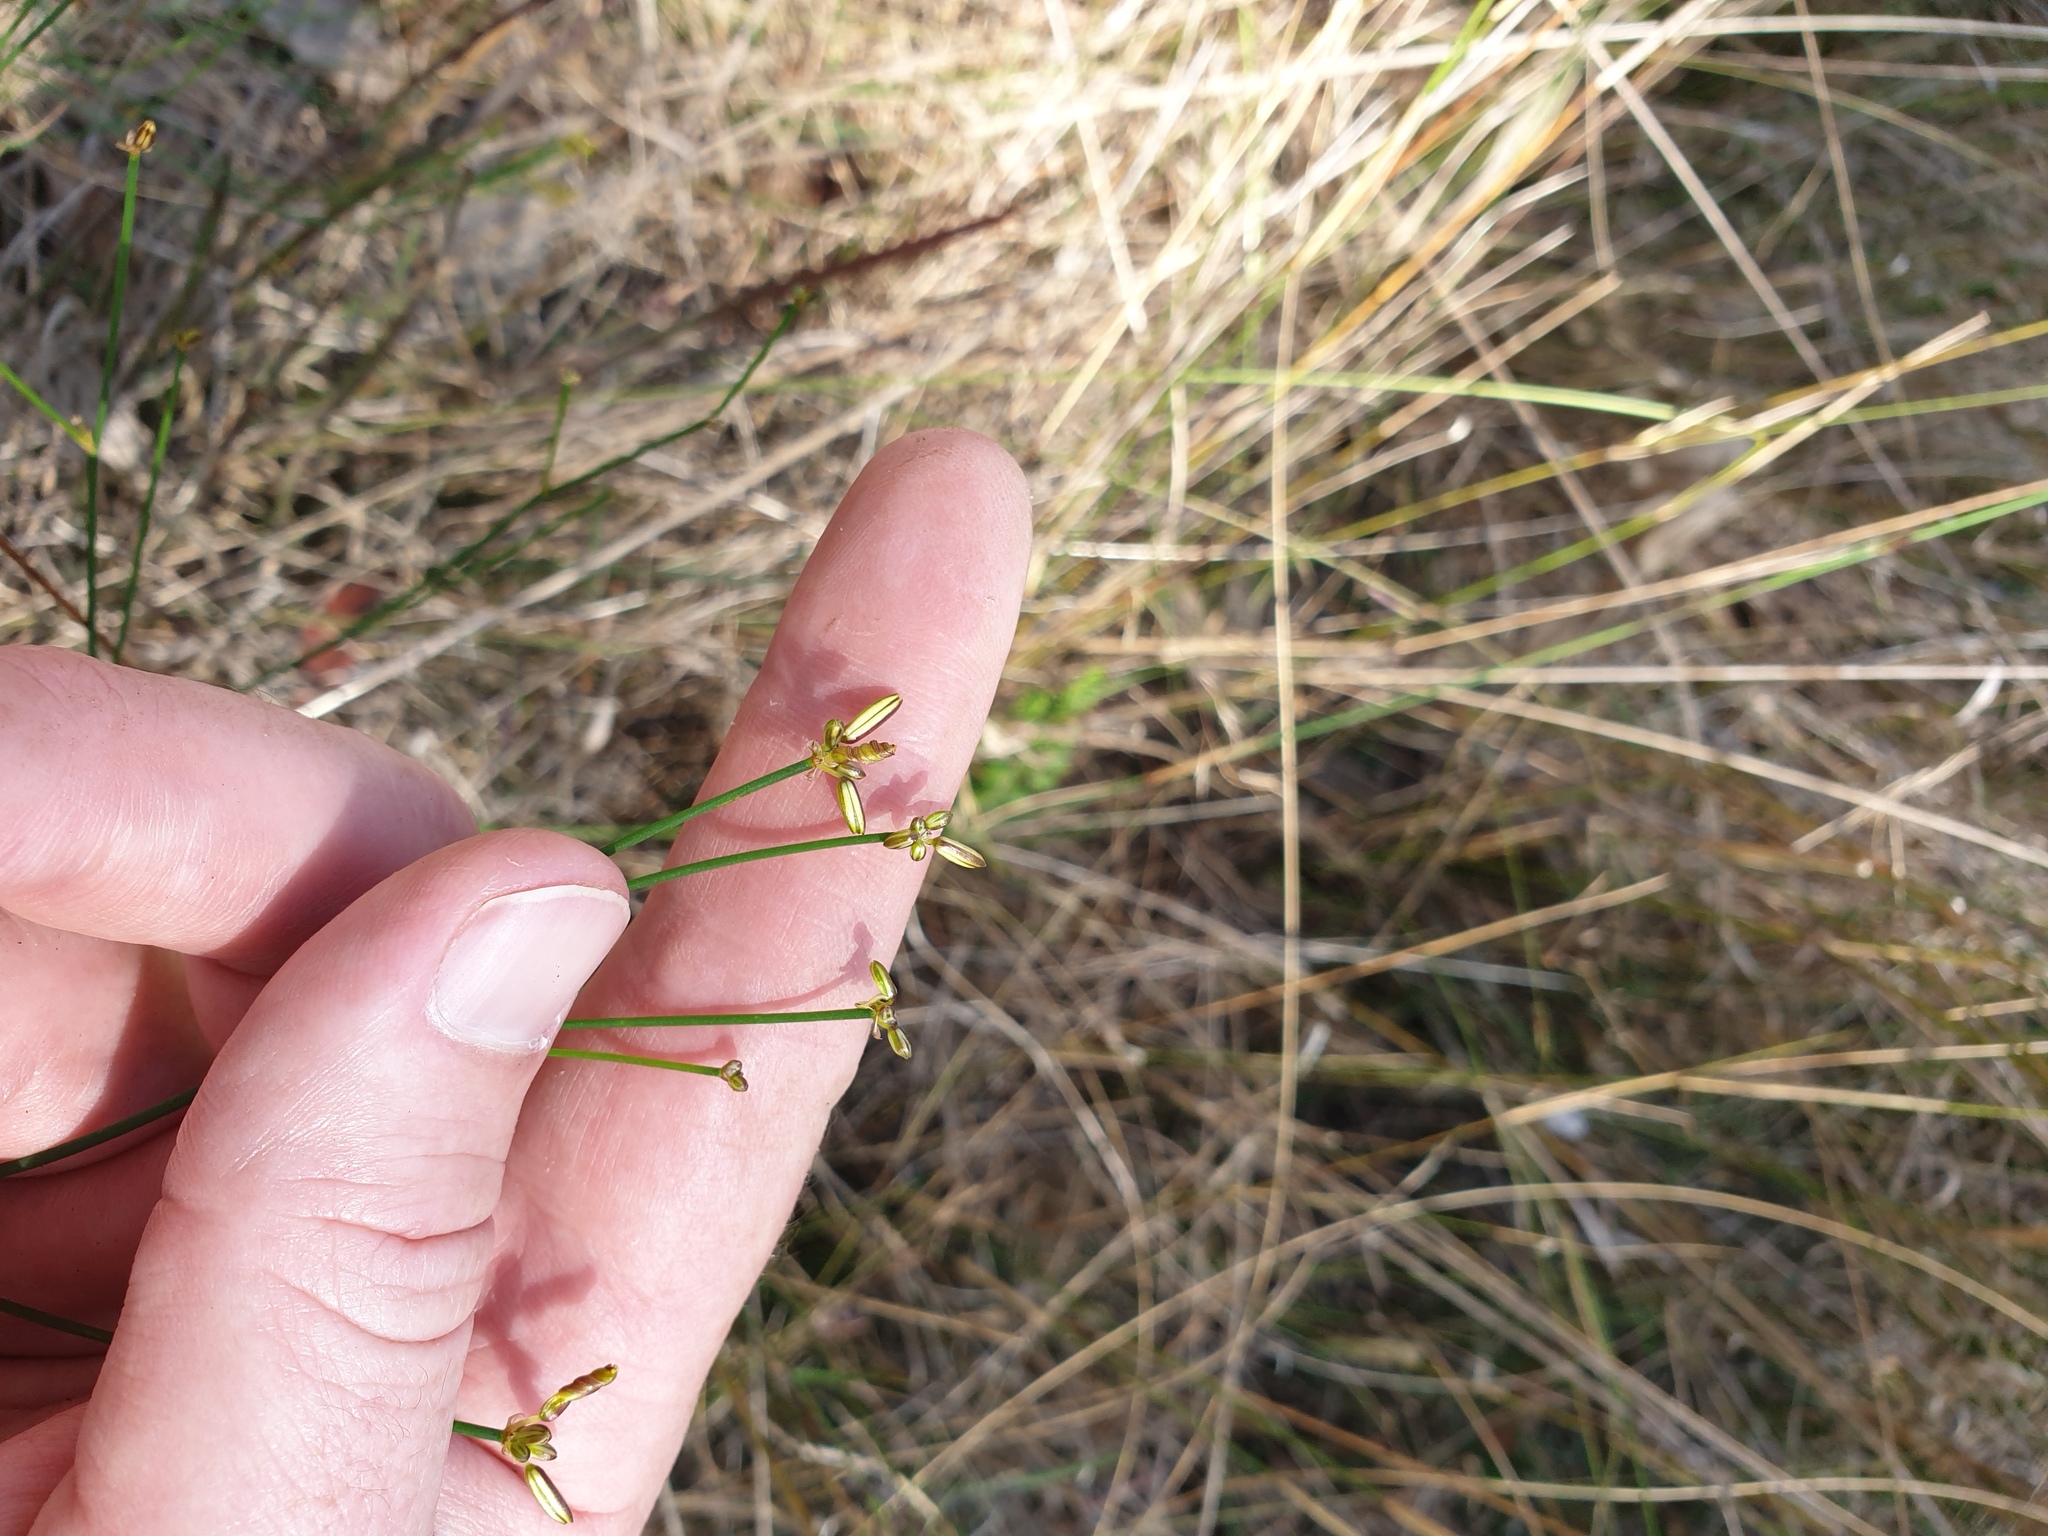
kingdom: Plantae
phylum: Tracheophyta
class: Liliopsida
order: Asparagales
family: Asphodelaceae
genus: Tricoryne
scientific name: Tricoryne elatior
